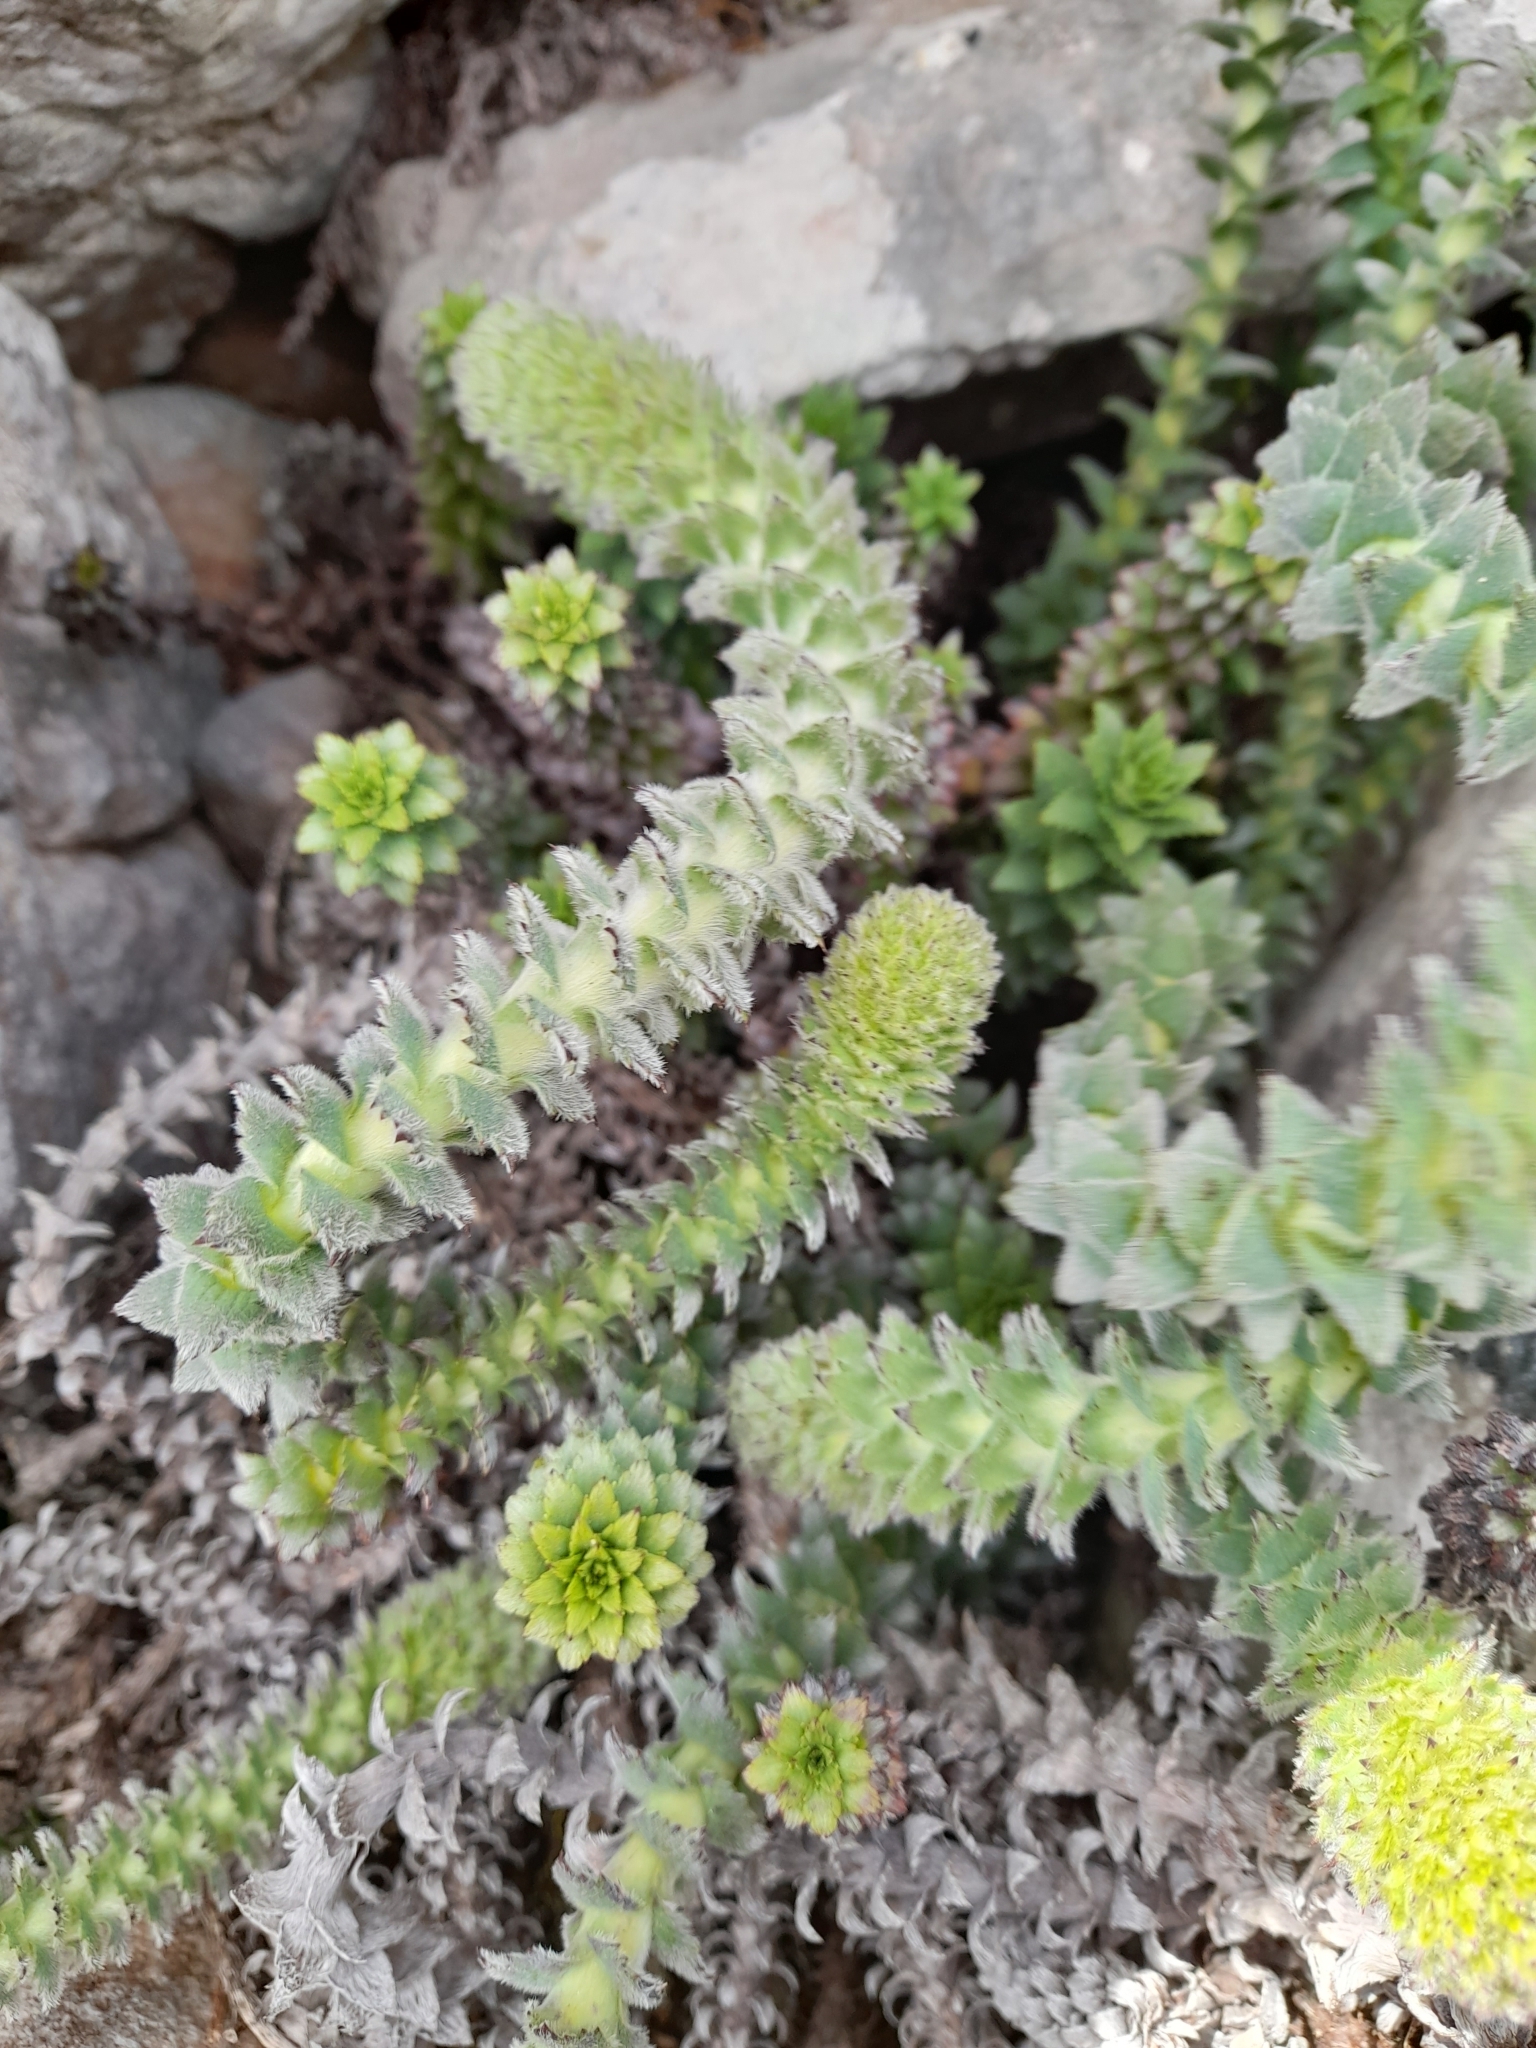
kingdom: Plantae
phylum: Tracheophyta
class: Magnoliopsida
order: Asterales
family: Asteraceae
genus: Nassauvia
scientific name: Nassauvia serpens
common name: Snakeplant
